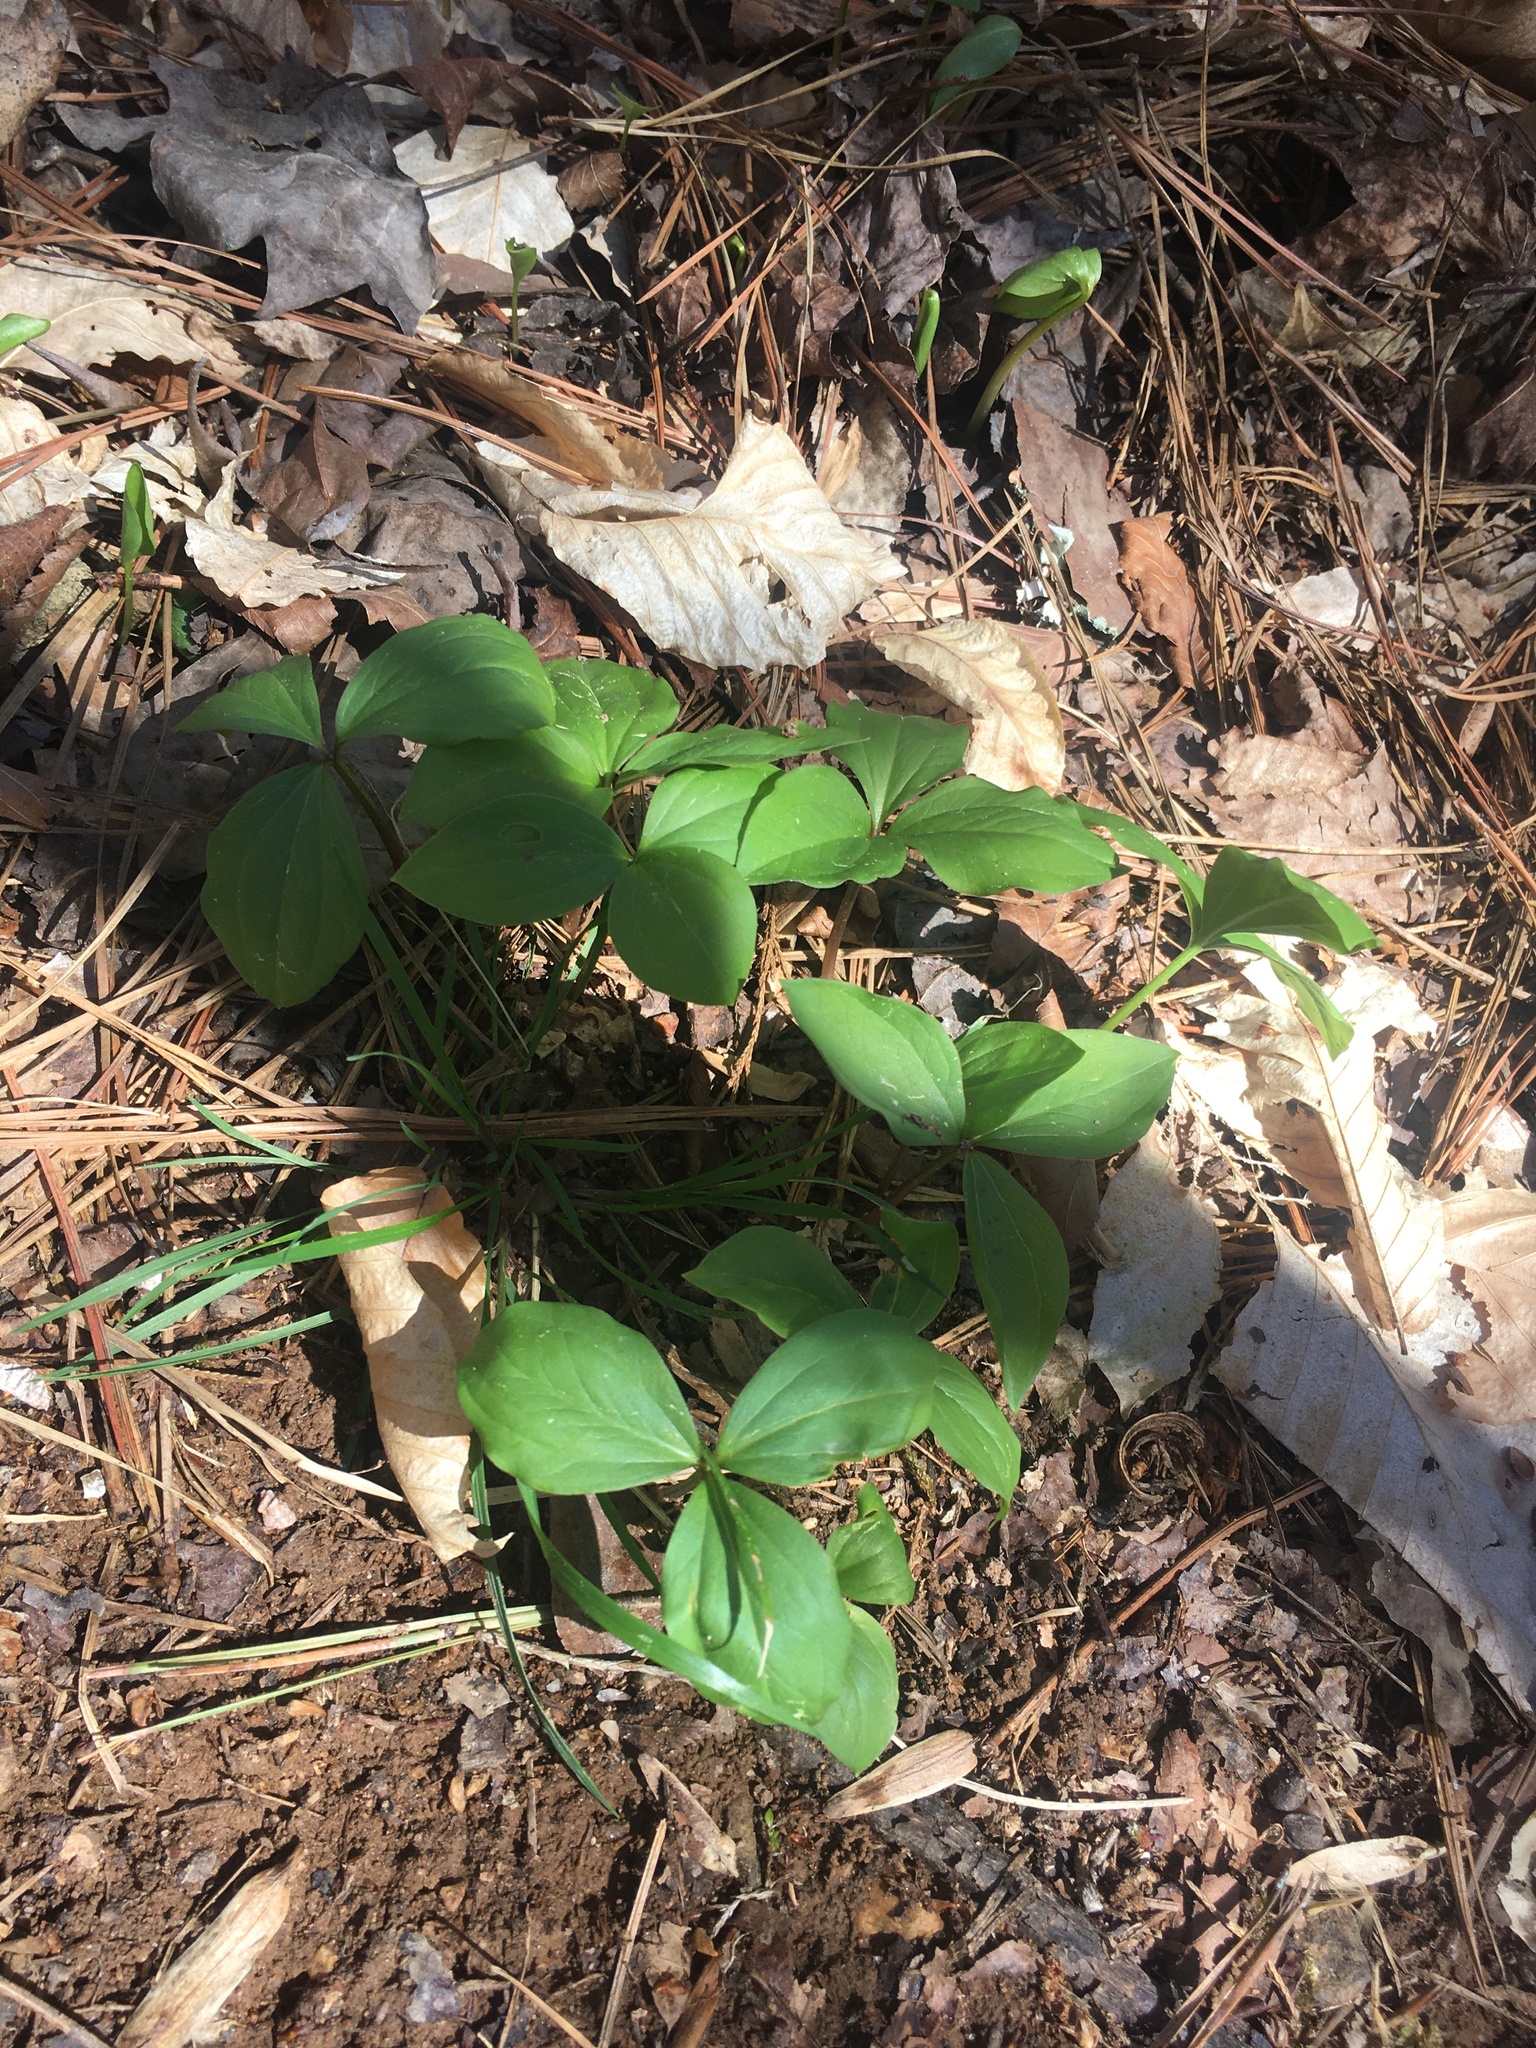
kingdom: Plantae
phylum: Tracheophyta
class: Liliopsida
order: Liliales
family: Melanthiaceae
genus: Trillium
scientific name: Trillium catesbaei
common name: Bashful trillium
